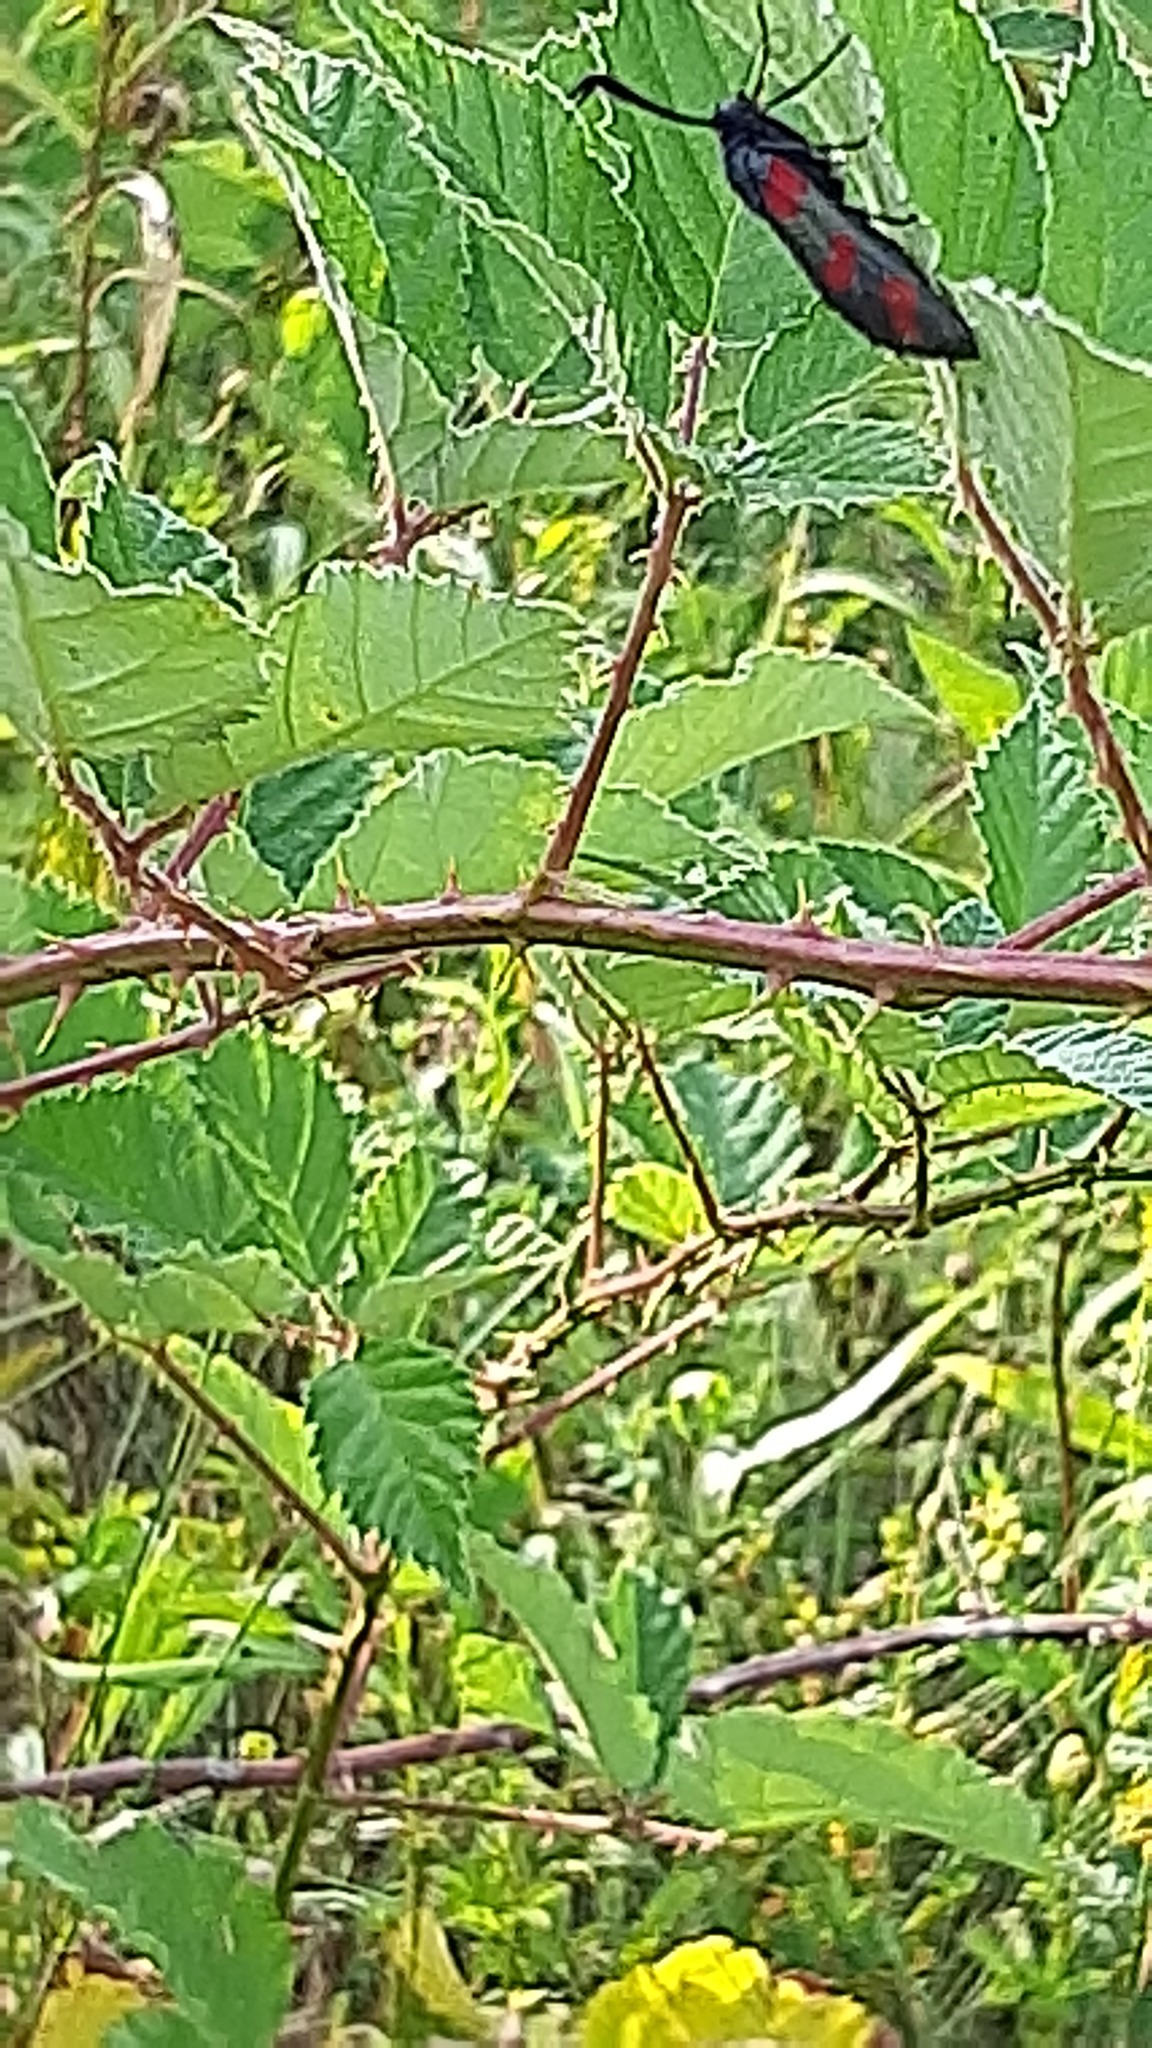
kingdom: Animalia
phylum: Arthropoda
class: Insecta
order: Lepidoptera
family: Zygaenidae
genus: Zygaena
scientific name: Zygaena filipendulae
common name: Six-spot burnet
